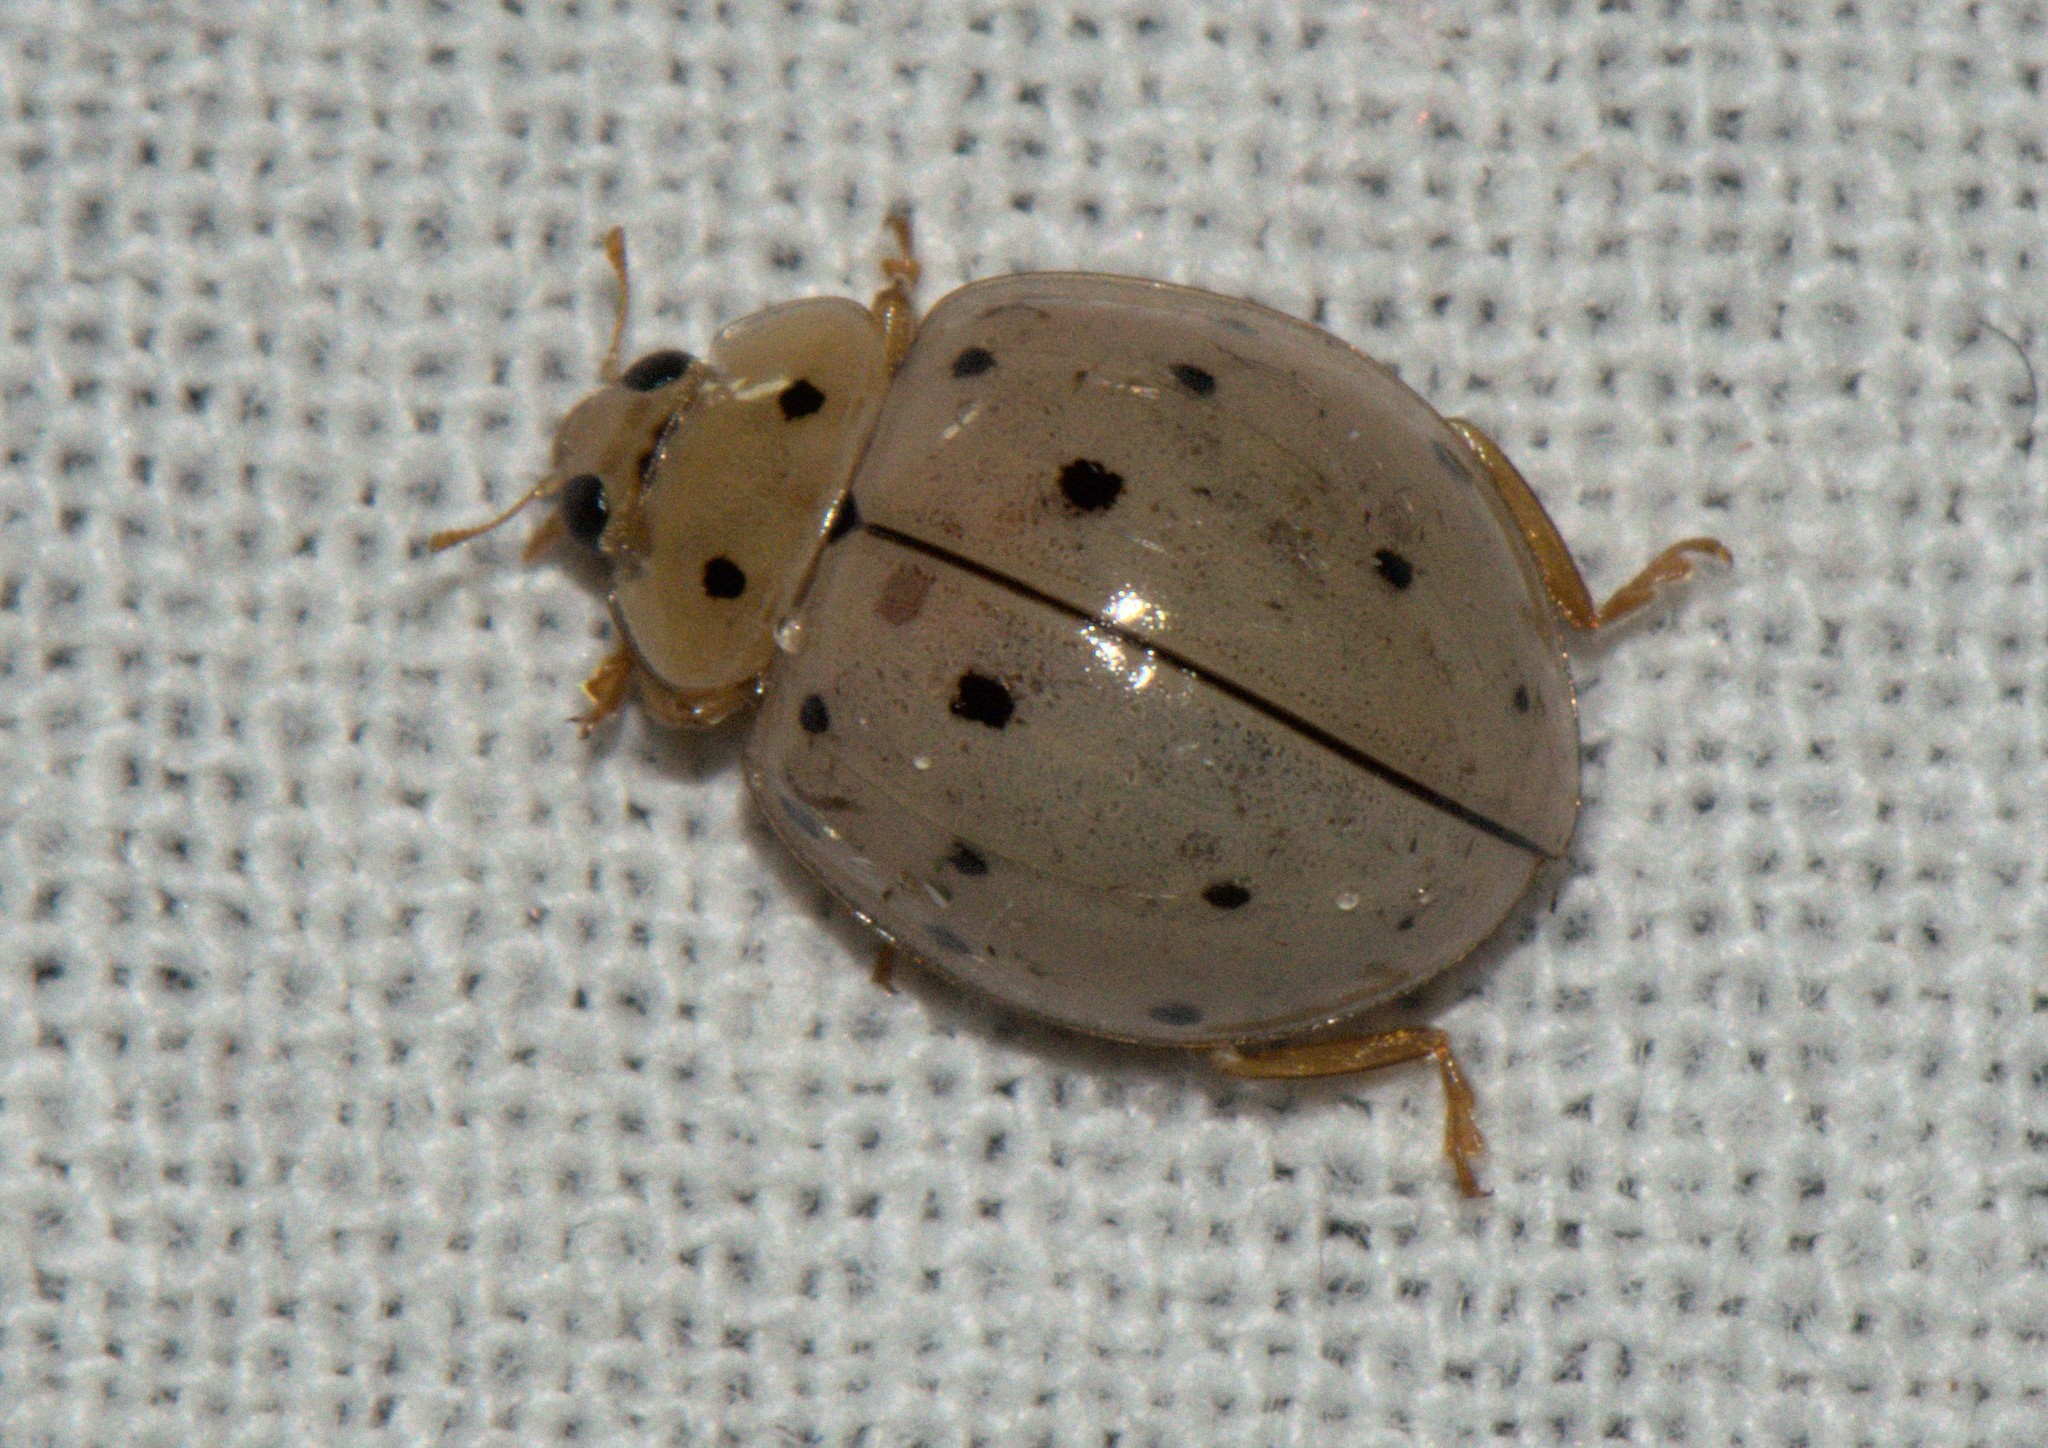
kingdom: Animalia
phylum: Arthropoda
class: Insecta
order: Coleoptera
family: Coccinellidae
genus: Harmonia
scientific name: Harmonia sedecimnotata
